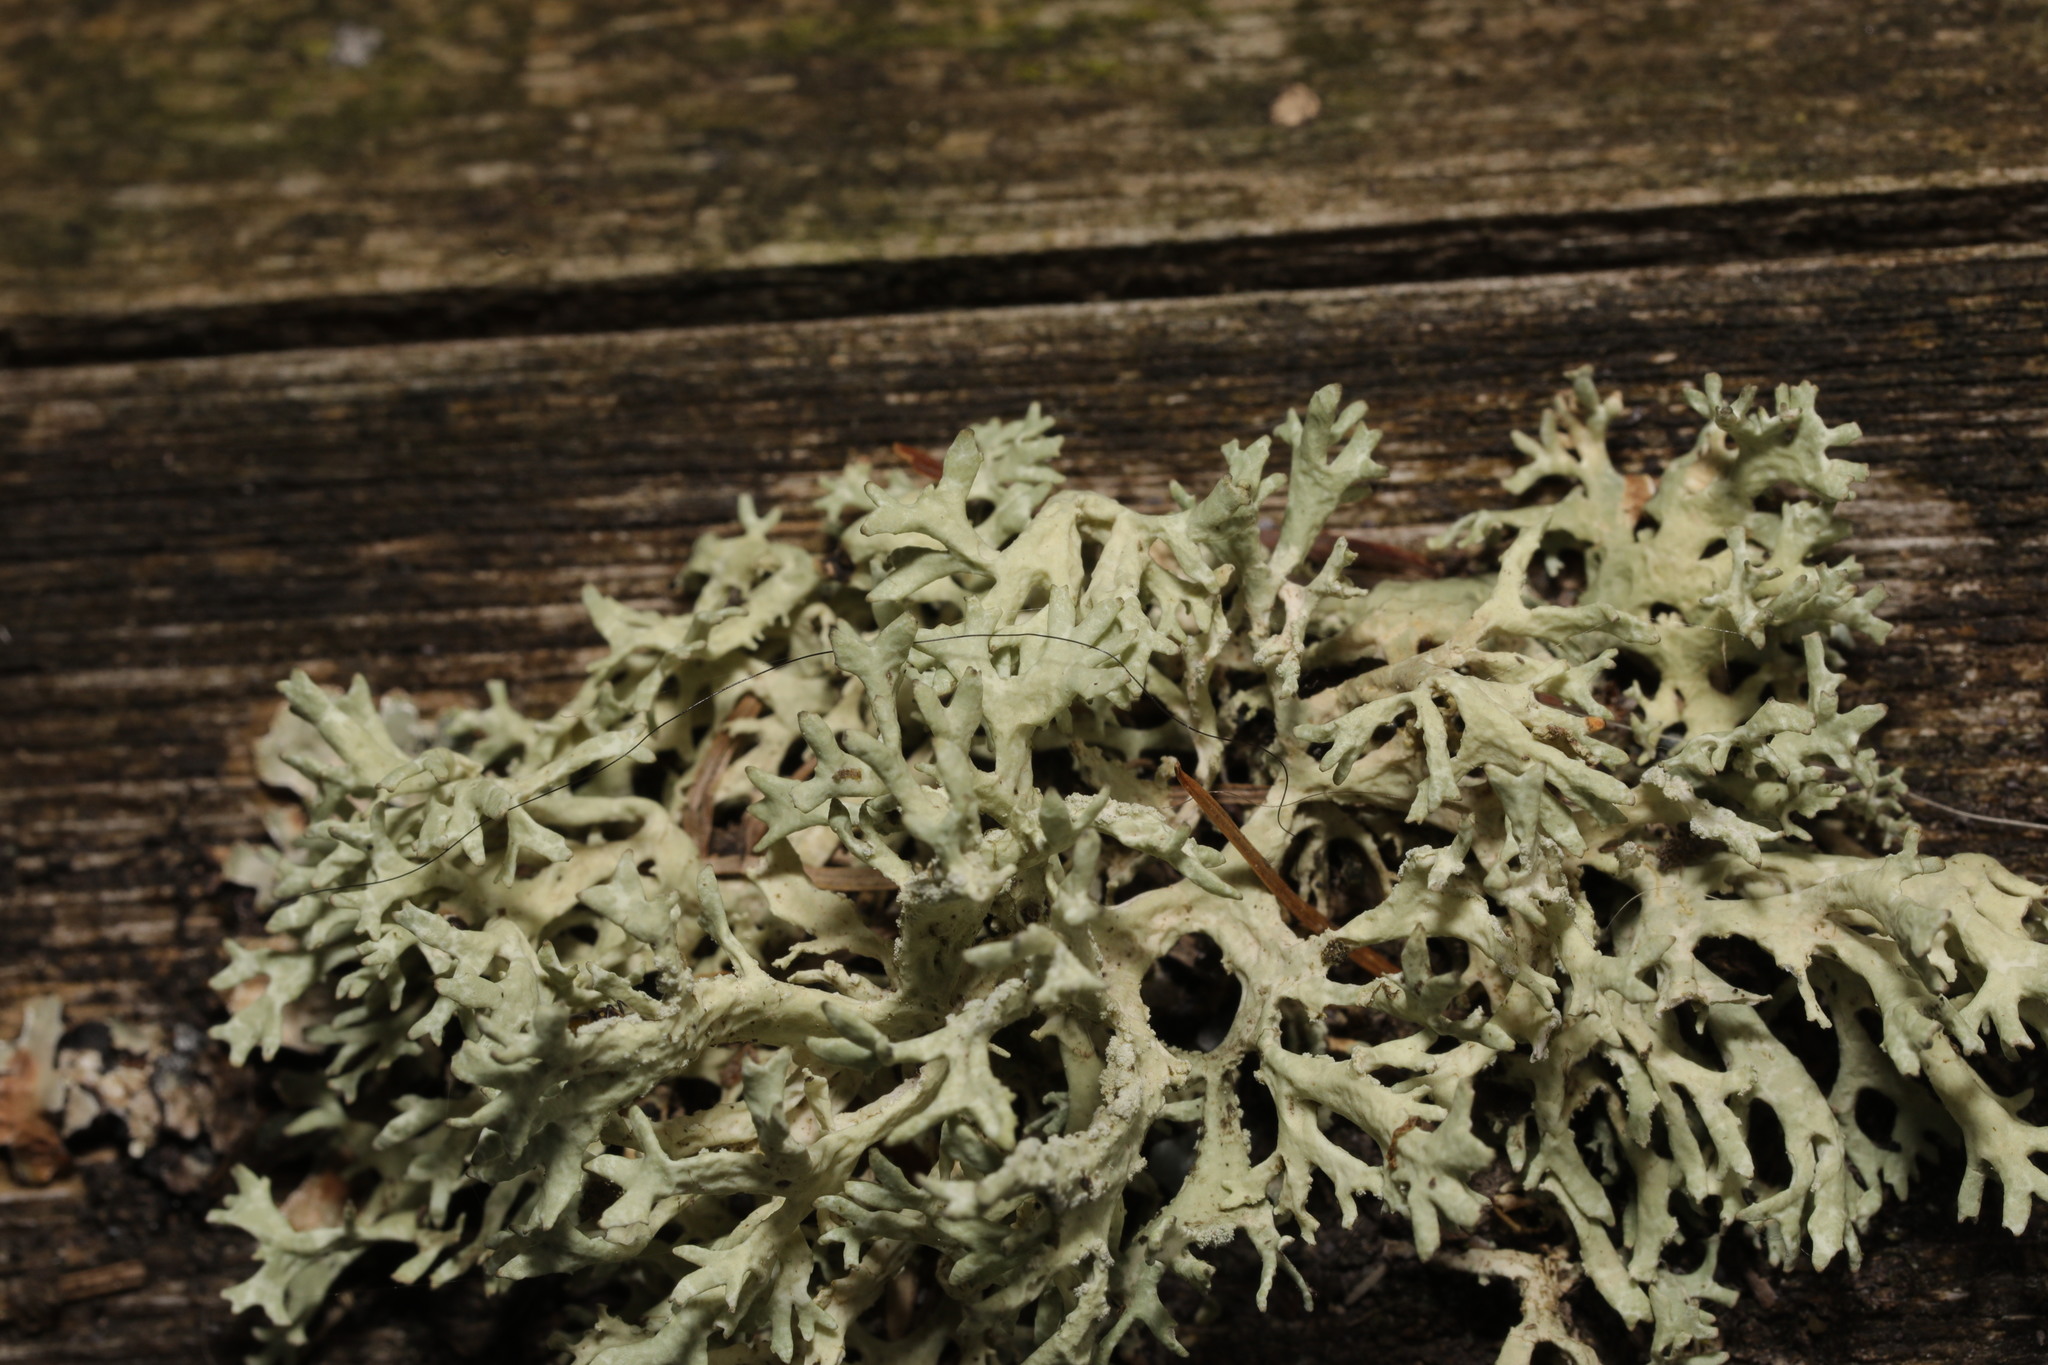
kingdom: Fungi
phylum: Ascomycota
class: Lecanoromycetes
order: Lecanorales
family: Parmeliaceae
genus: Evernia
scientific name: Evernia prunastri
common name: Oak moss
